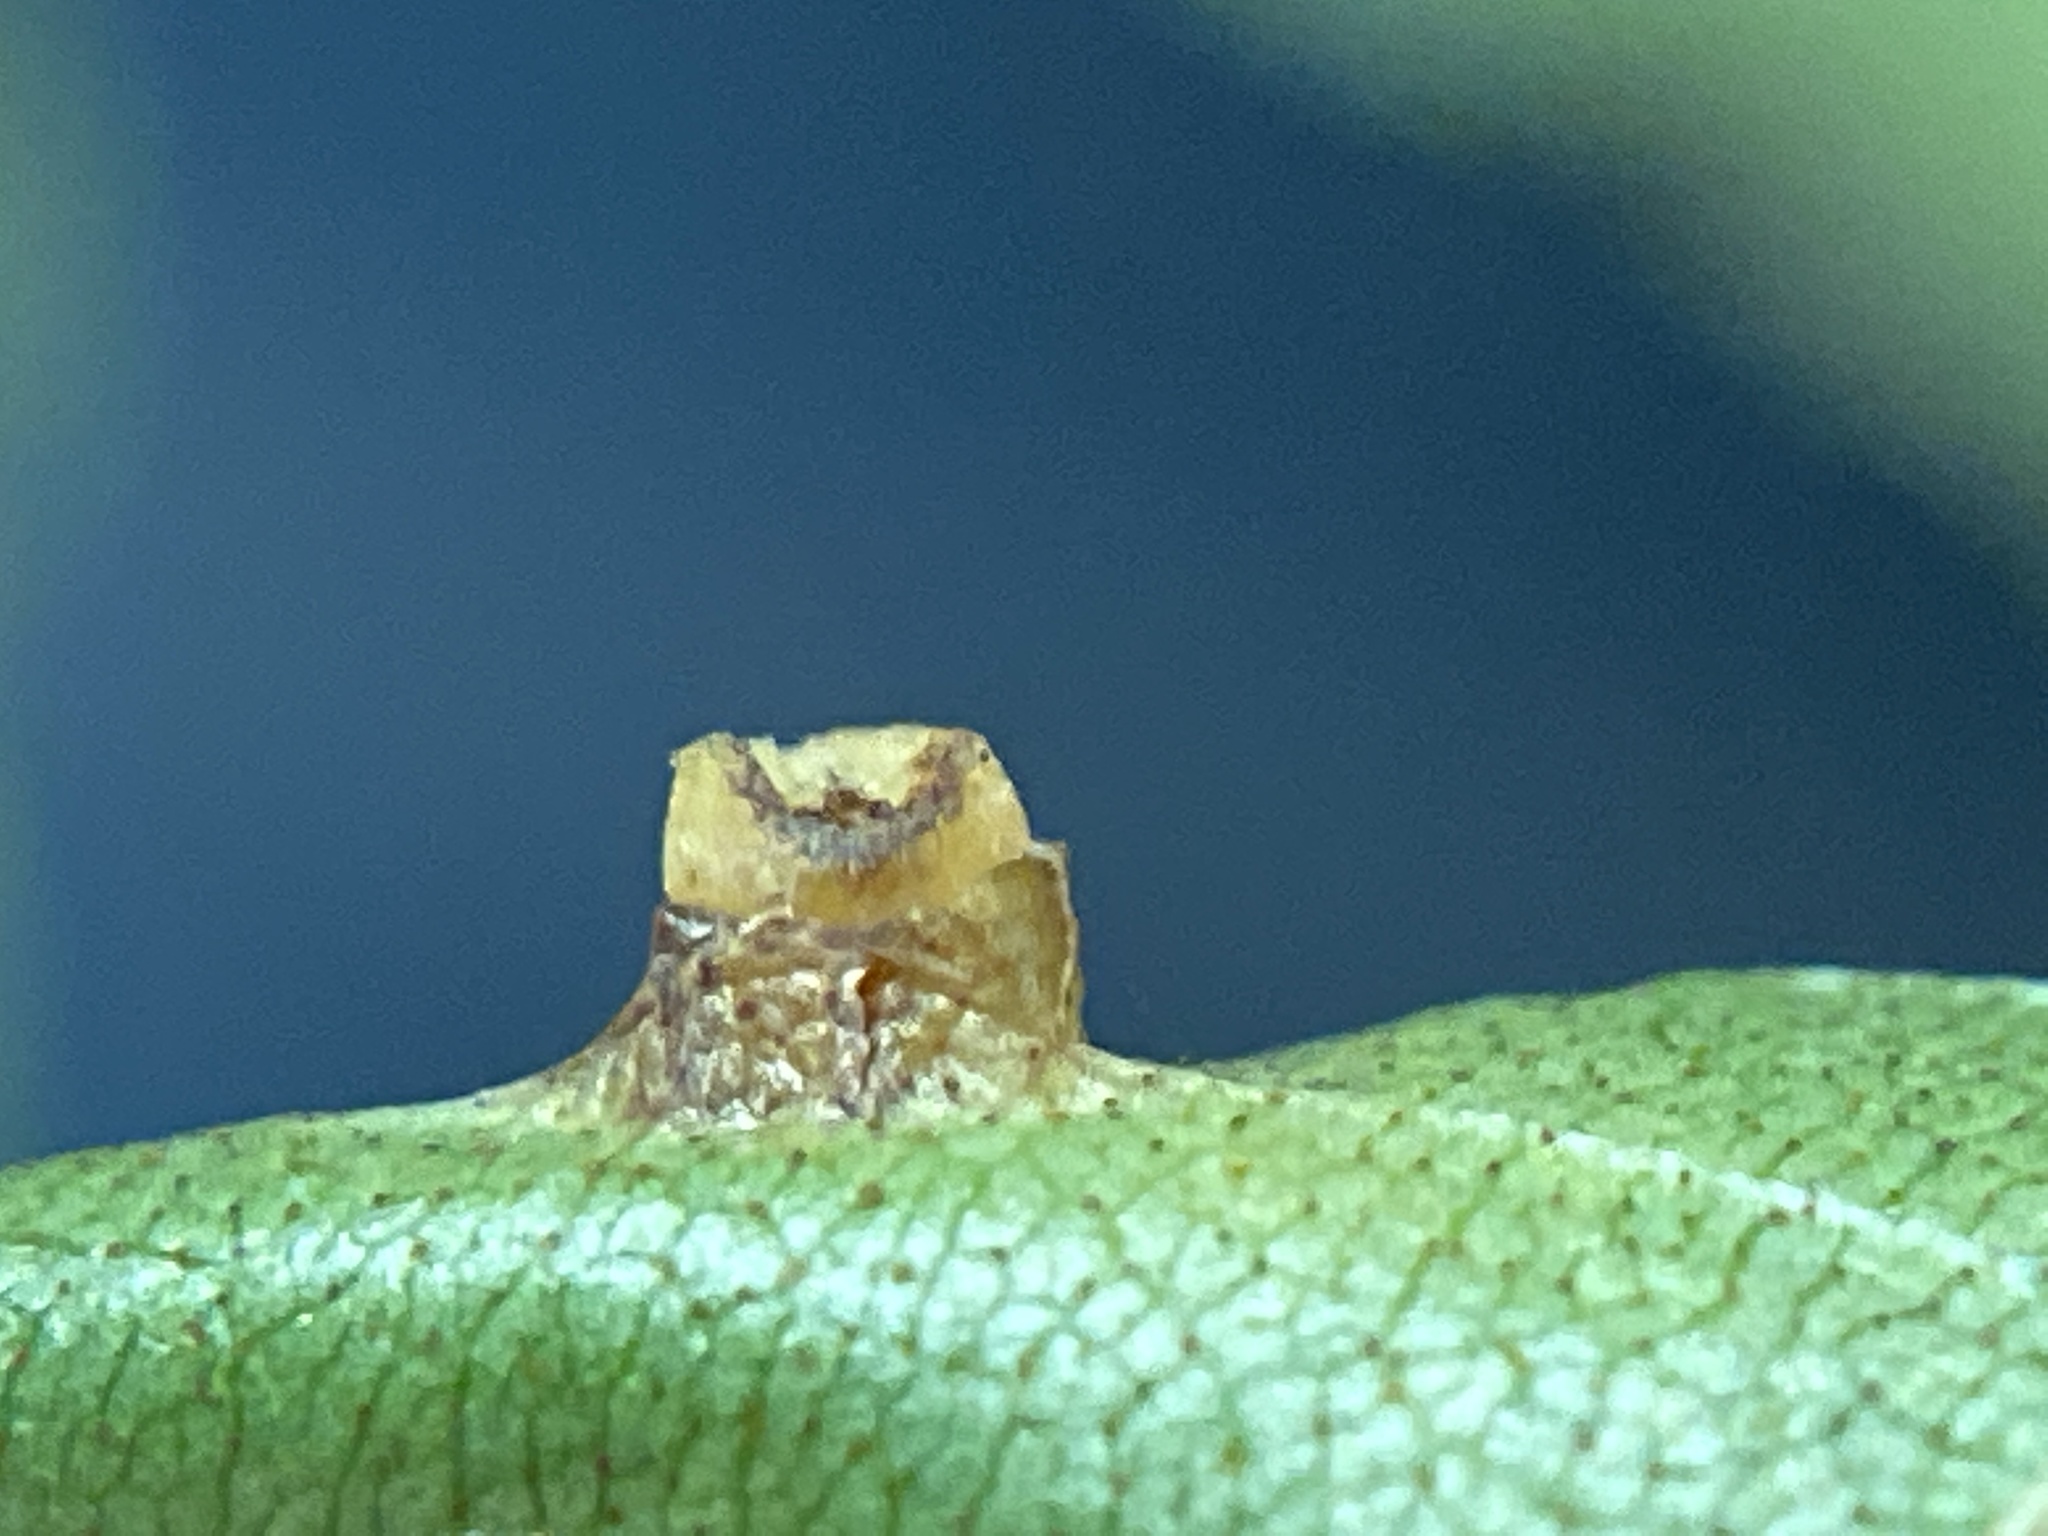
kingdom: Animalia
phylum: Arthropoda
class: Insecta
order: Diptera
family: Cecidomyiidae
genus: Caryomyia
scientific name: Caryomyia melicrustum
